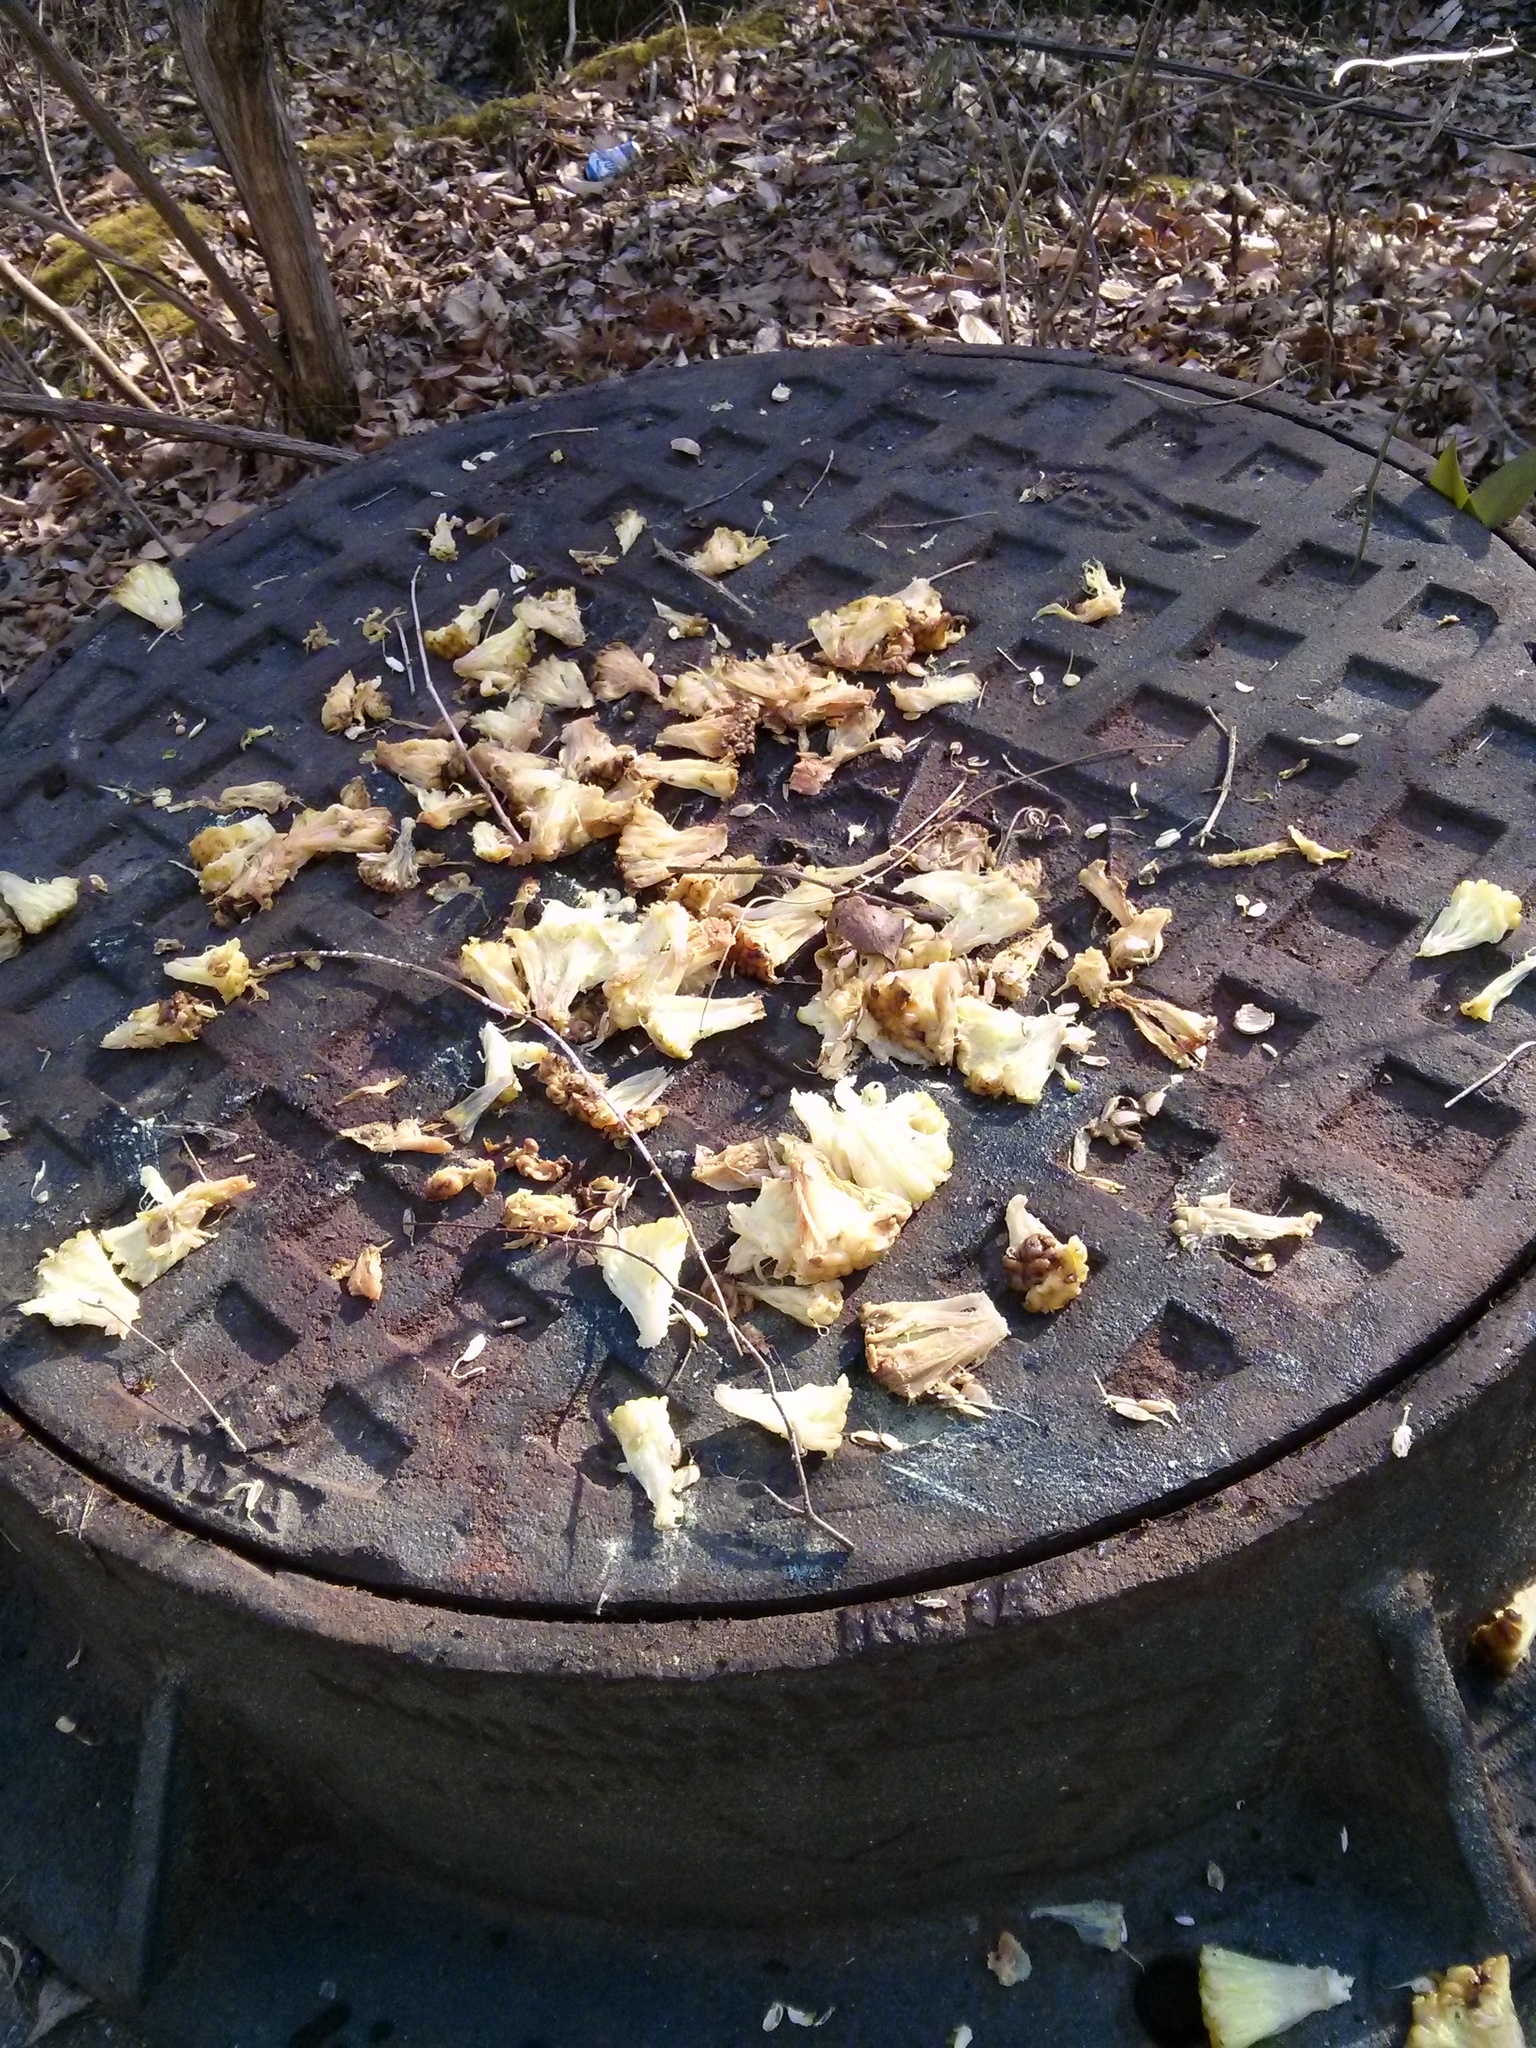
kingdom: Plantae
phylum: Tracheophyta
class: Magnoliopsida
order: Rosales
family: Moraceae
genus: Maclura
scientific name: Maclura pomifera
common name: Osage-orange
